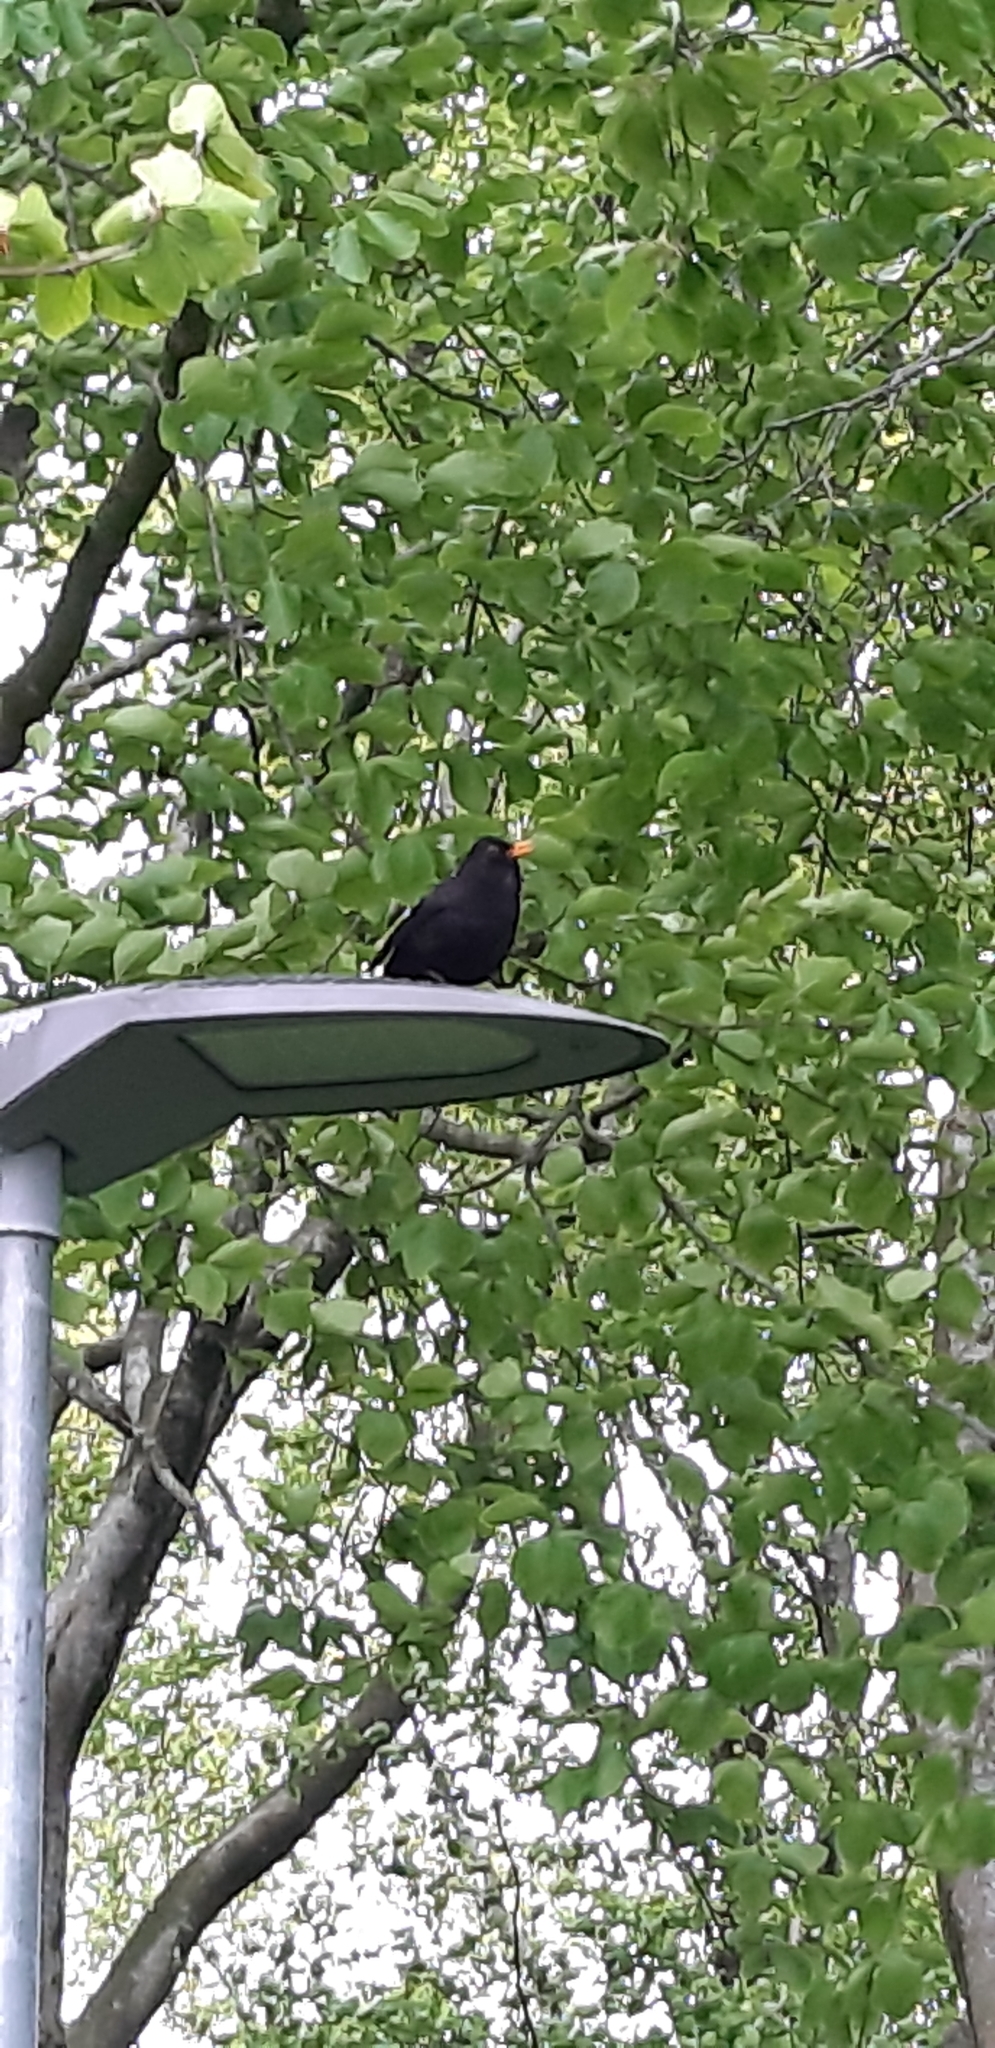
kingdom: Animalia
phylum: Chordata
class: Aves
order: Passeriformes
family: Turdidae
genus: Turdus
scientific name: Turdus merula
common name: Common blackbird
